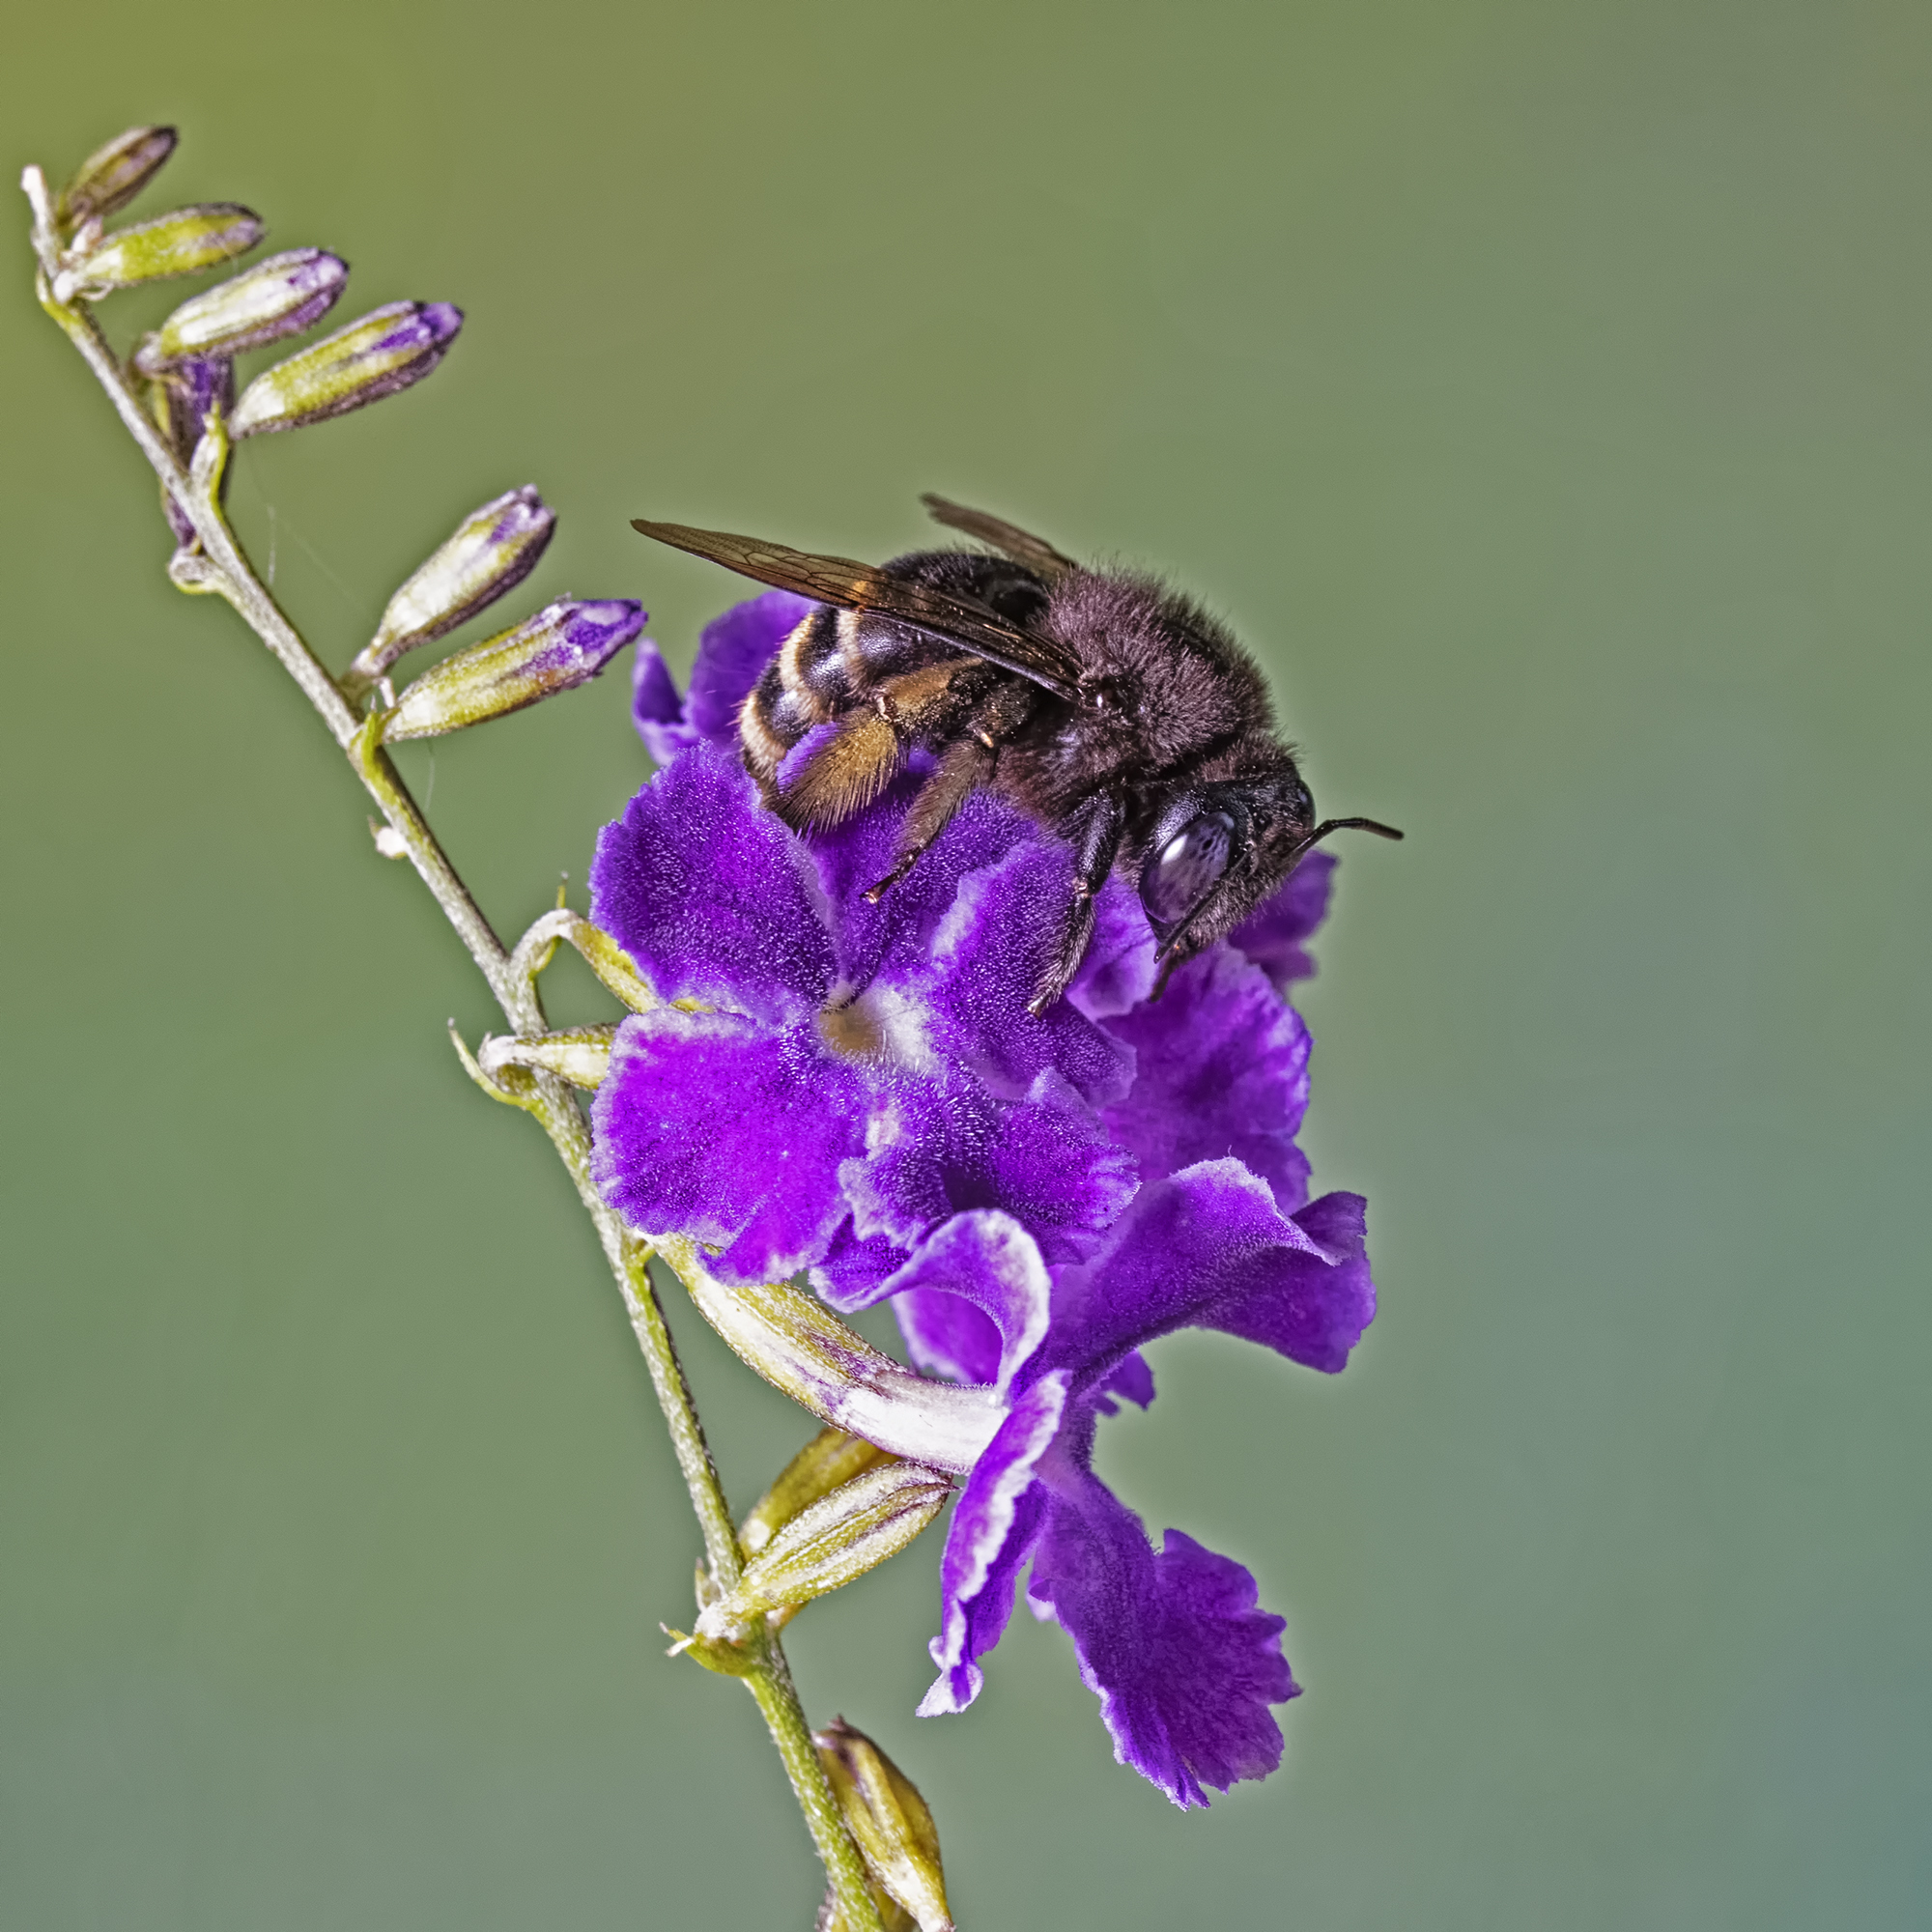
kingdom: Animalia
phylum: Arthropoda
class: Insecta
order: Hymenoptera
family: Apidae
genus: Xylocopa
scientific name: Xylocopa tabaniformis
